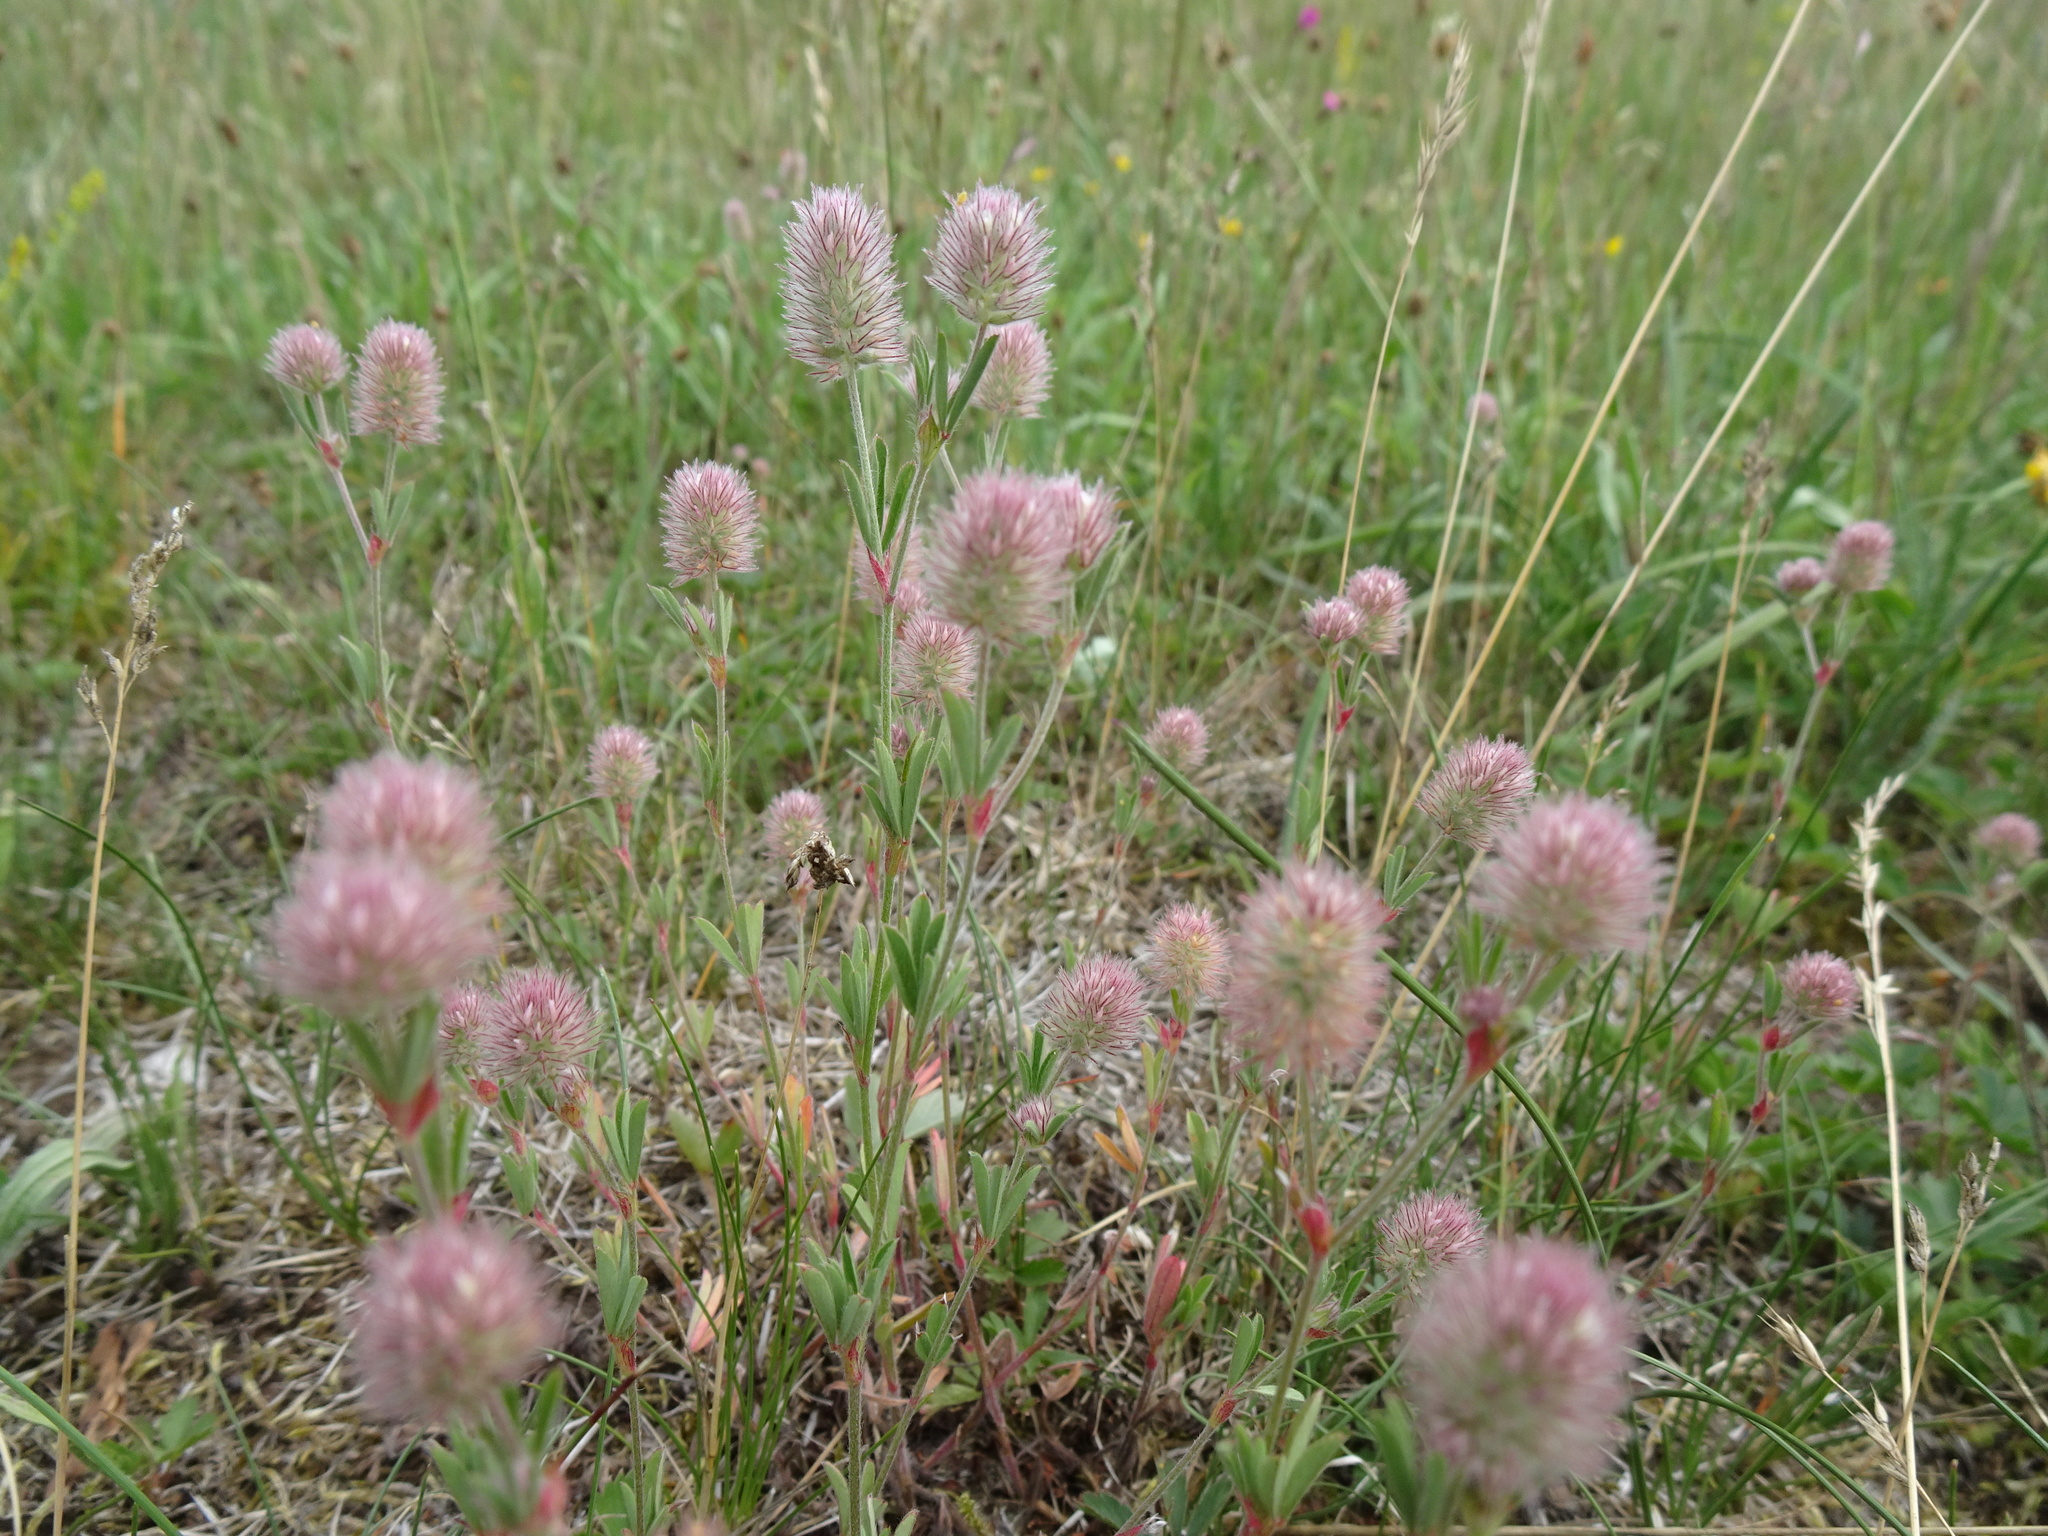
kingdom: Plantae
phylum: Tracheophyta
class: Magnoliopsida
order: Fabales
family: Fabaceae
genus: Trifolium
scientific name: Trifolium arvense
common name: Hare's-foot clover
